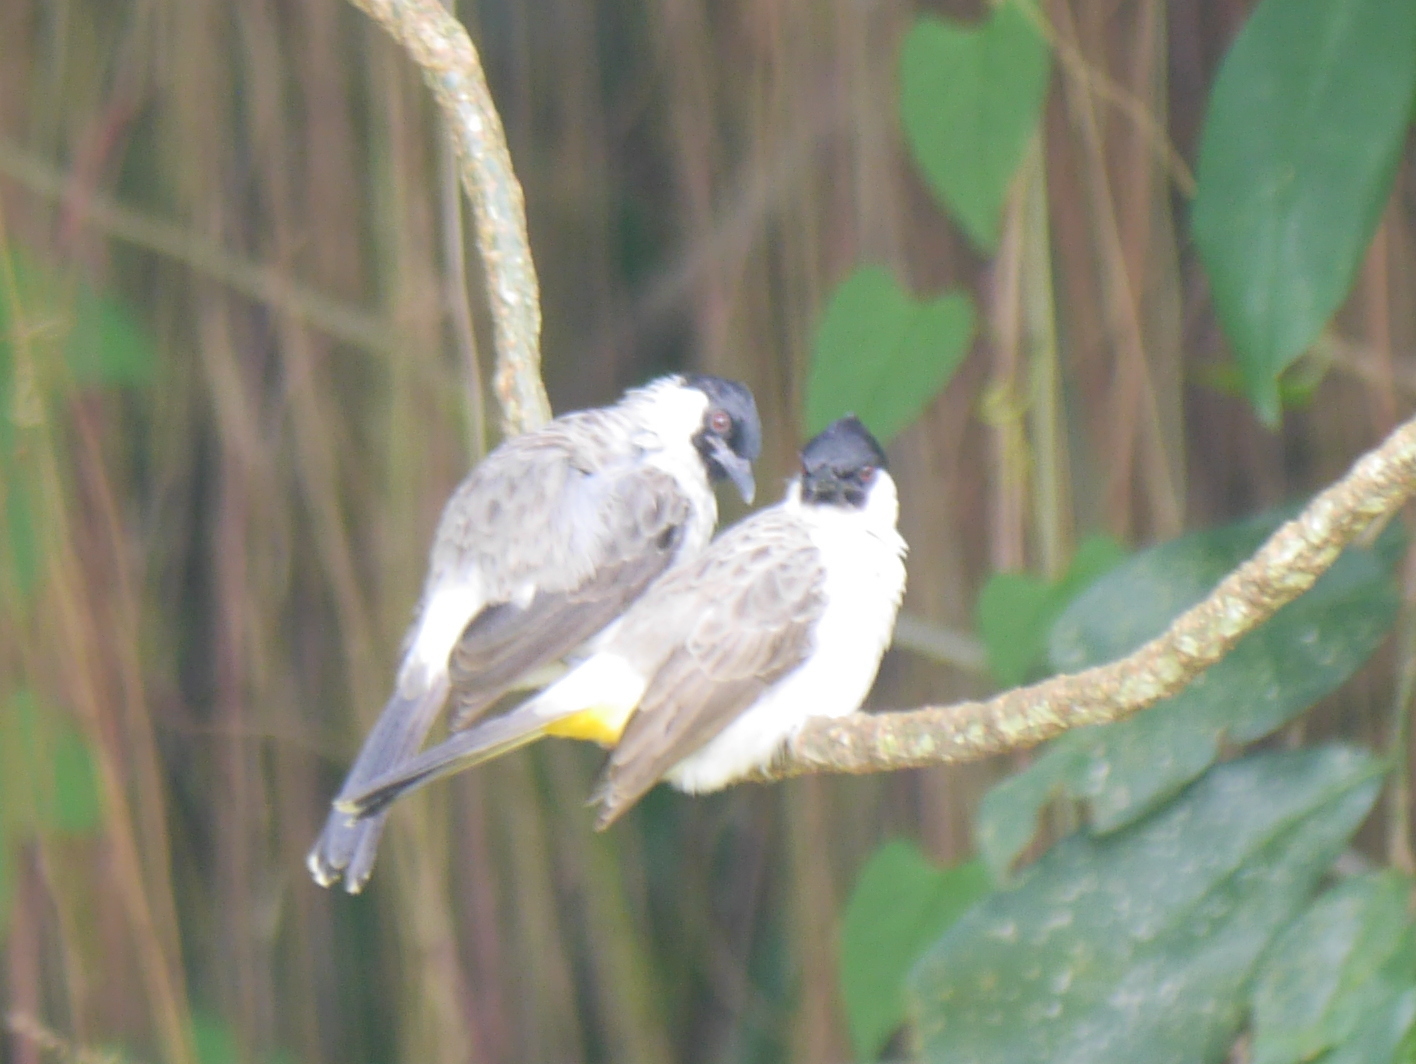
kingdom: Animalia
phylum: Chordata
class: Aves
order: Passeriformes
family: Pycnonotidae
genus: Pycnonotus
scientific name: Pycnonotus aurigaster
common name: Sooty-headed bulbul
